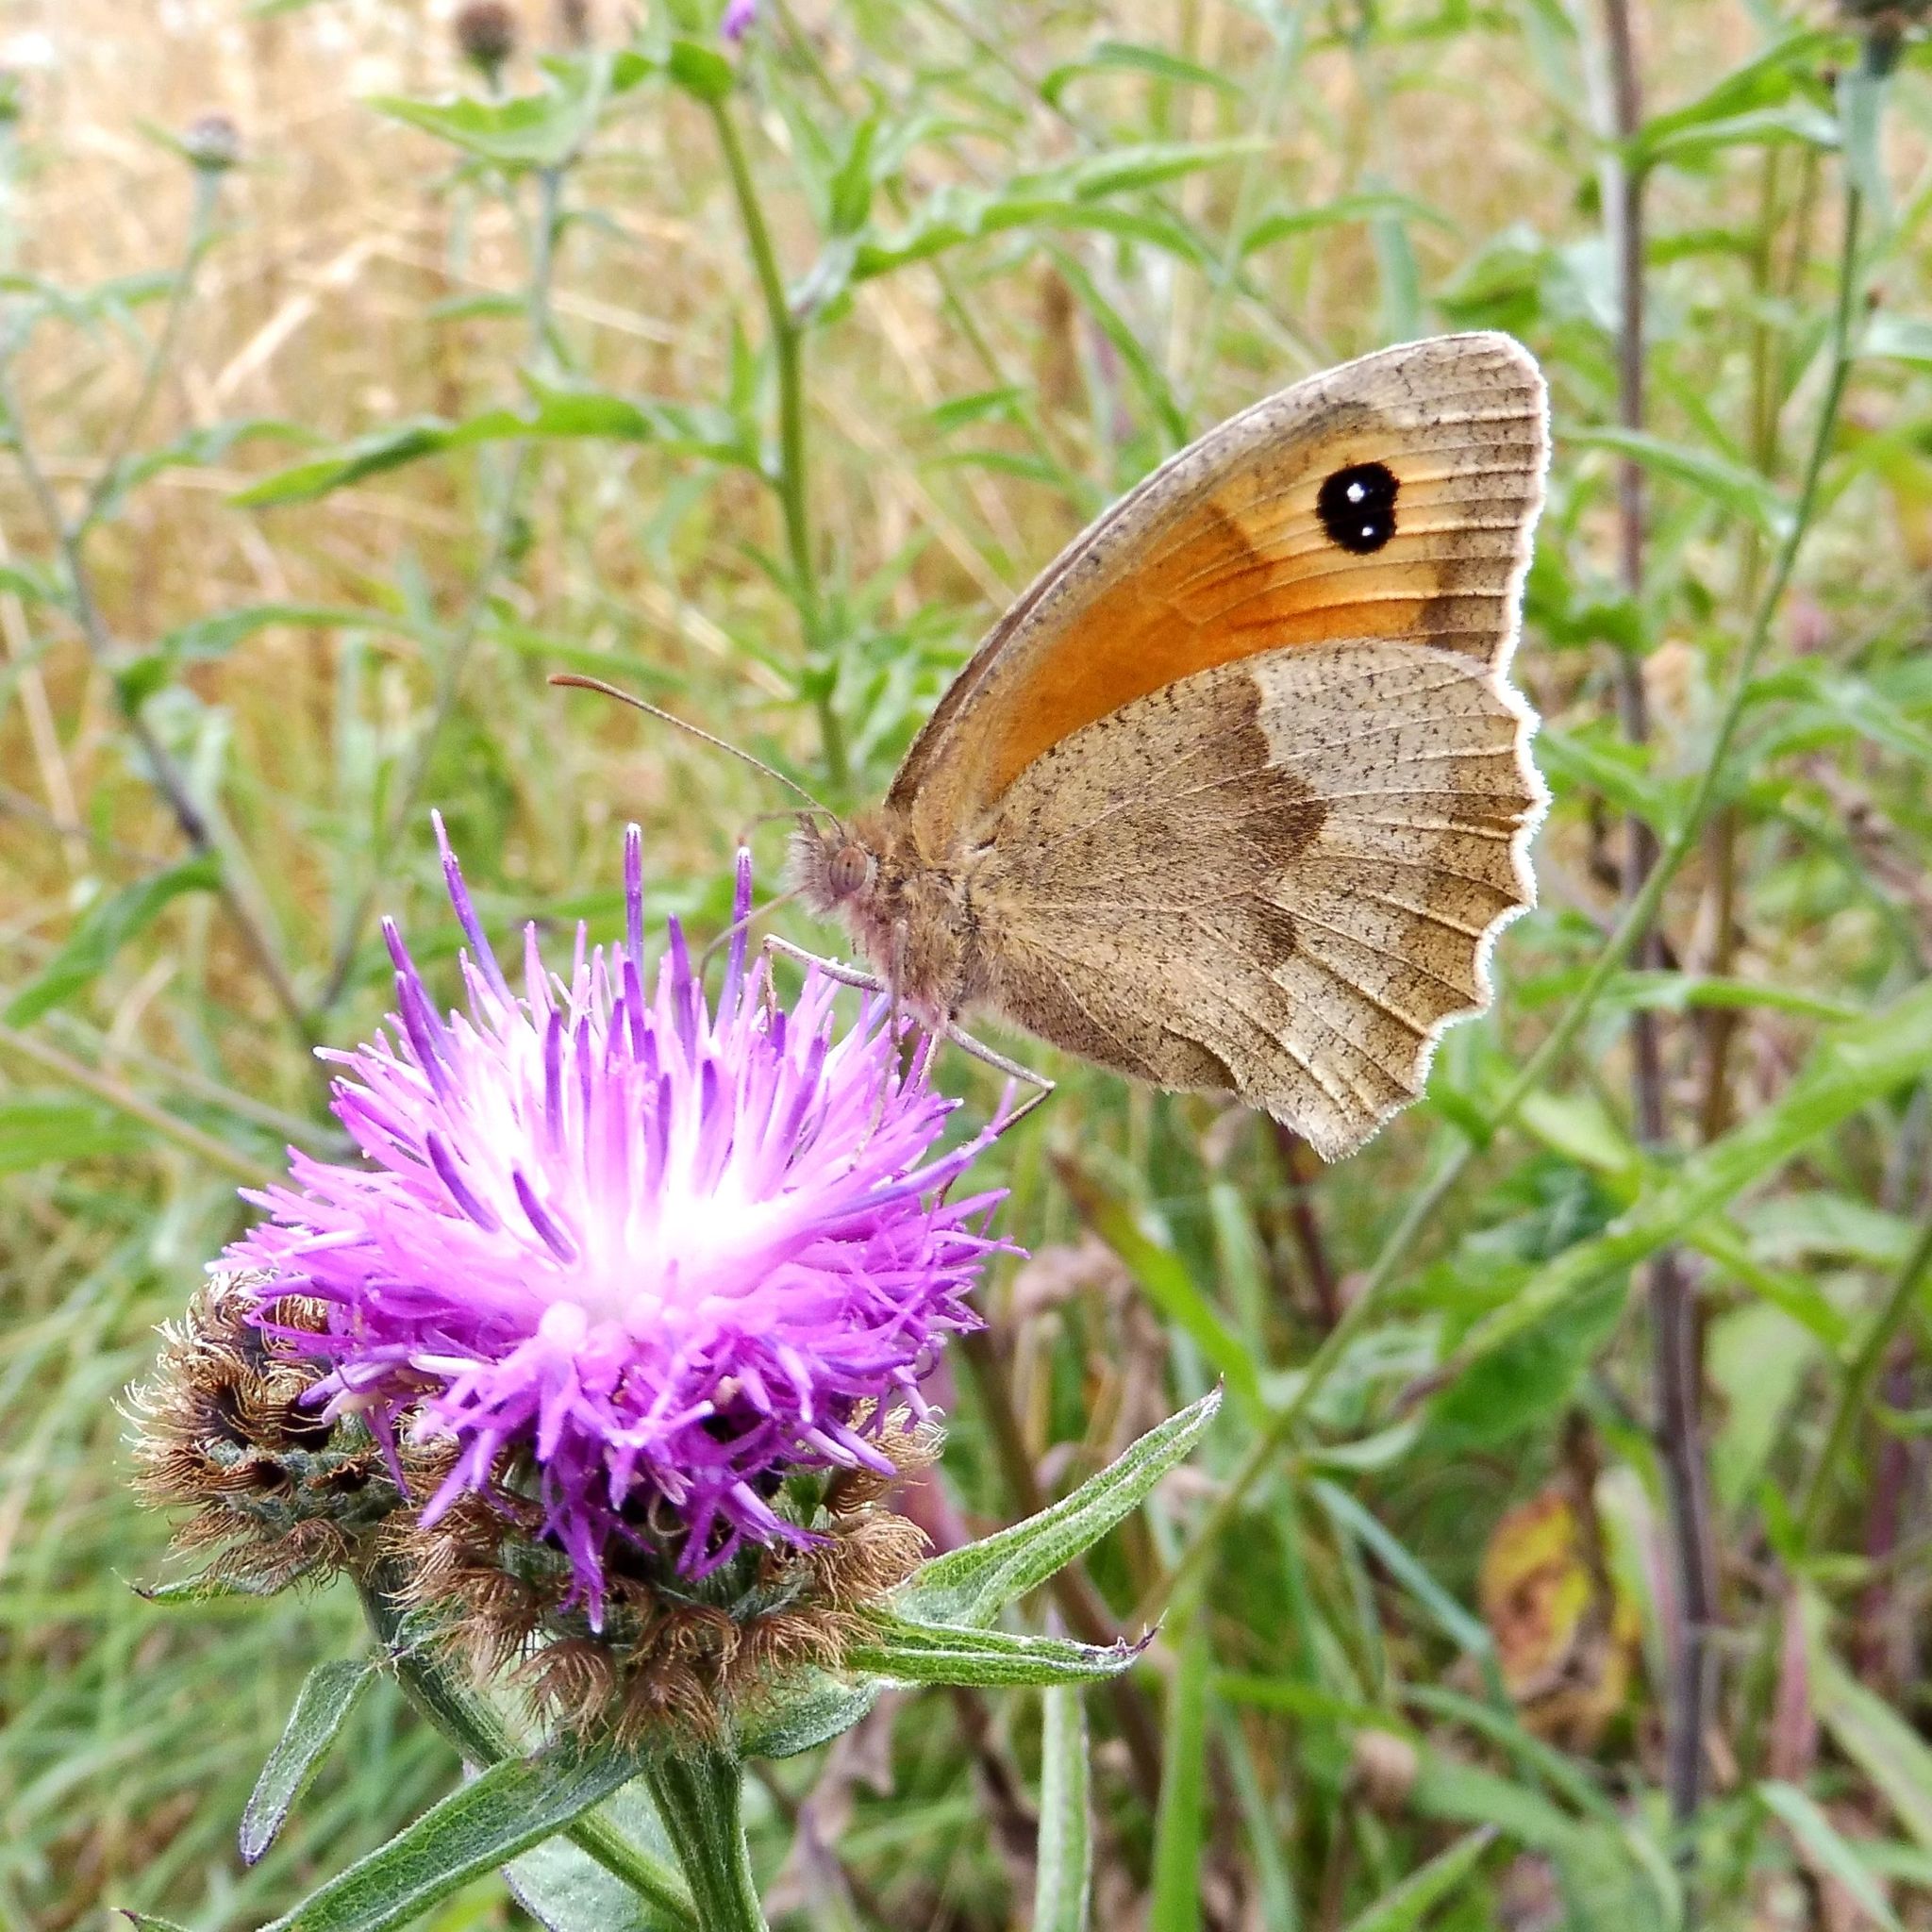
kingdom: Animalia
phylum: Arthropoda
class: Insecta
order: Lepidoptera
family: Nymphalidae
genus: Maniola
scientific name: Maniola jurtina
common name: Meadow brown
